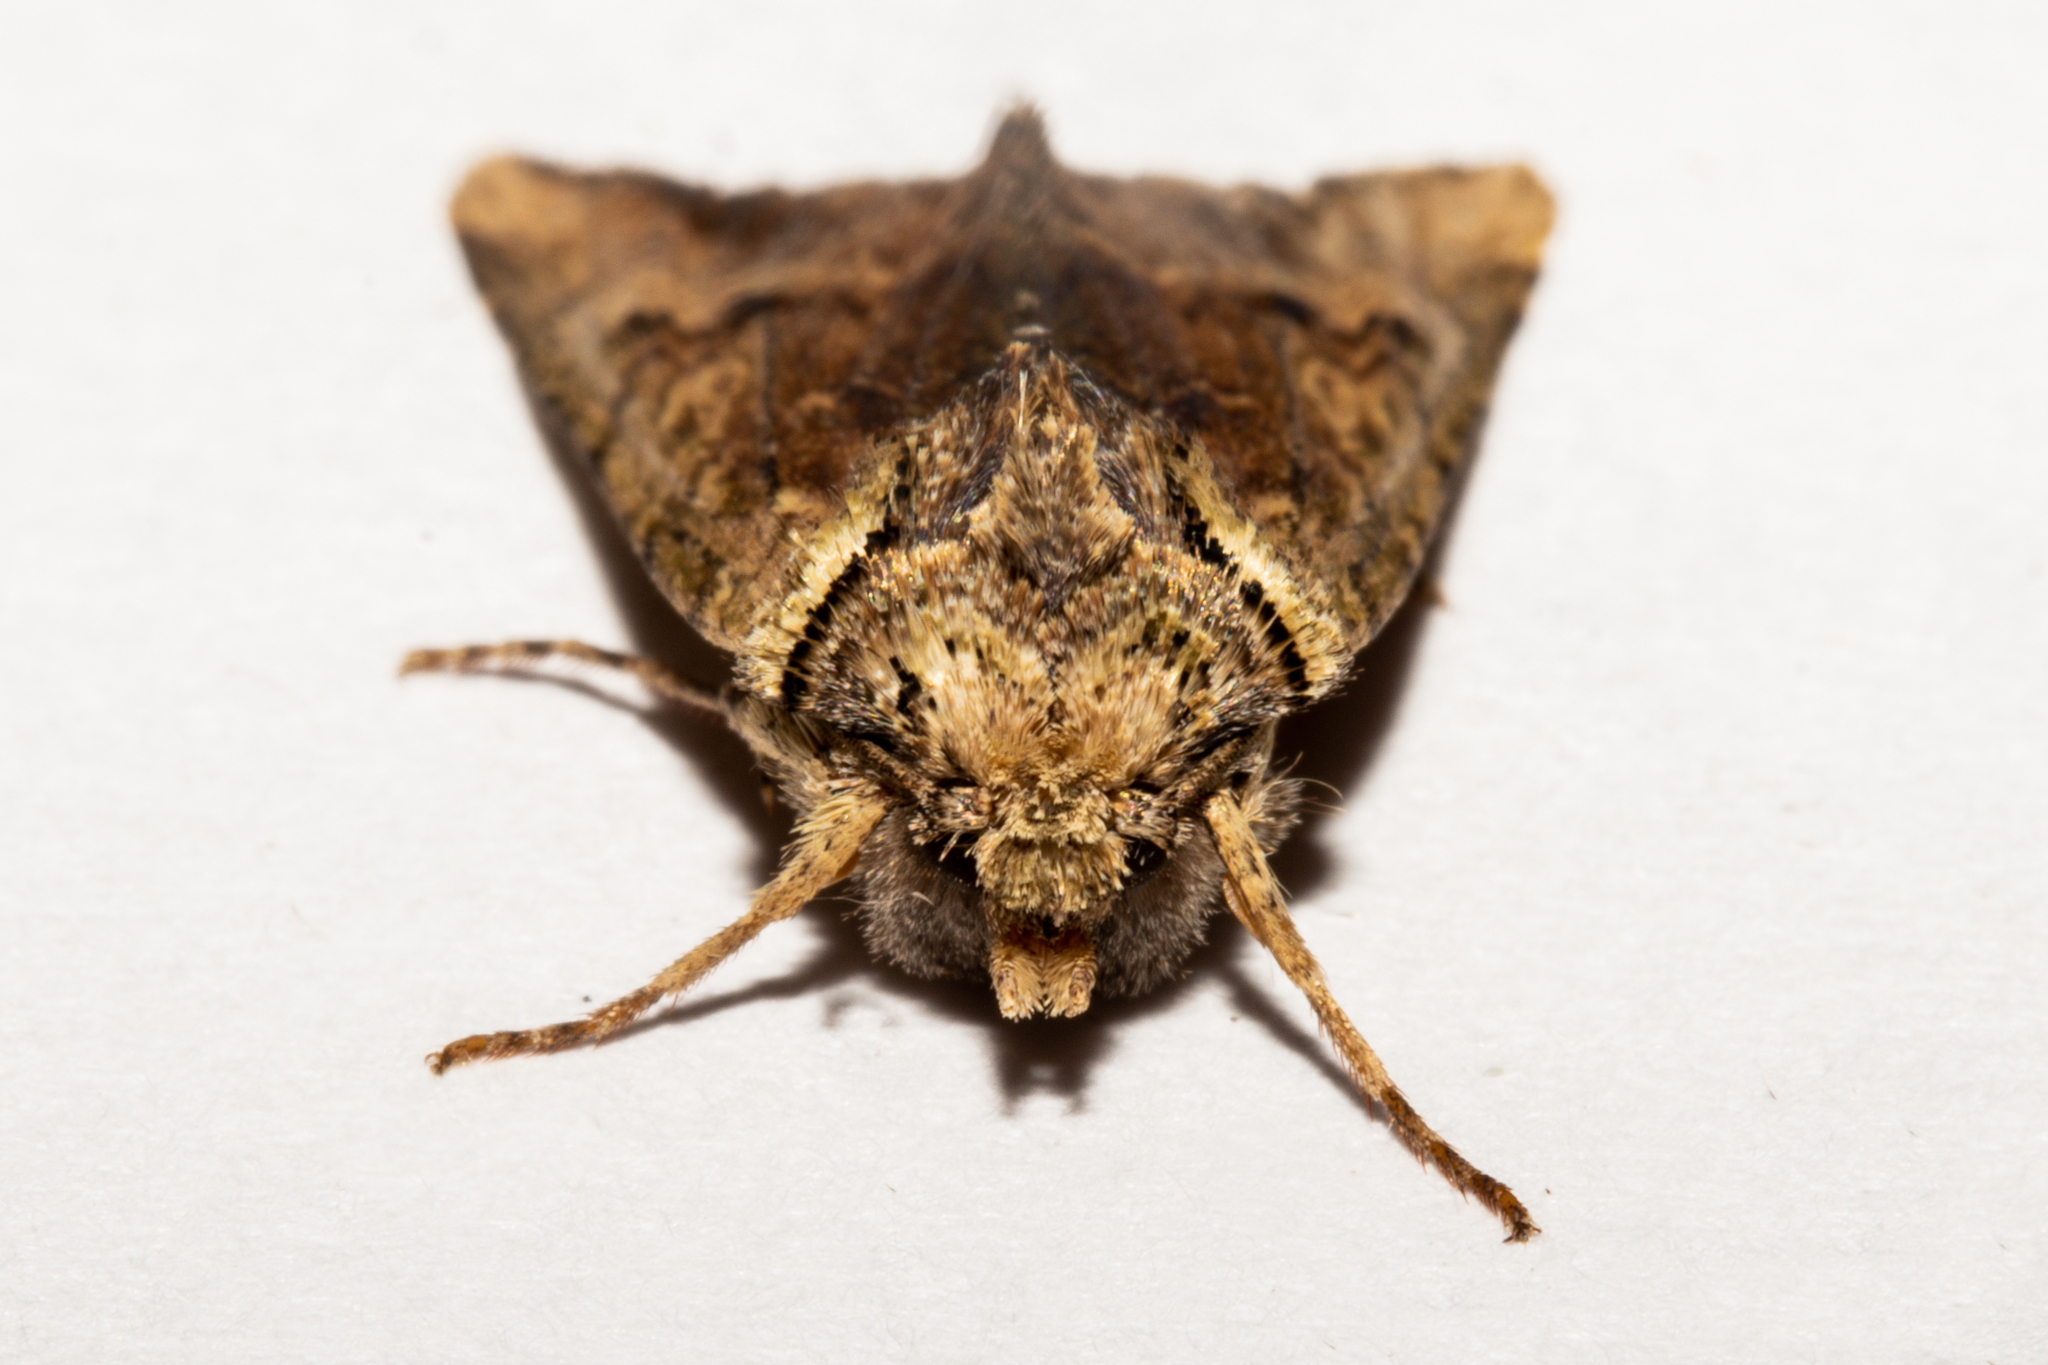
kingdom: Animalia
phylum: Arthropoda
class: Insecta
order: Lepidoptera
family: Noctuidae
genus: Meterana
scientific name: Meterana coeleno
